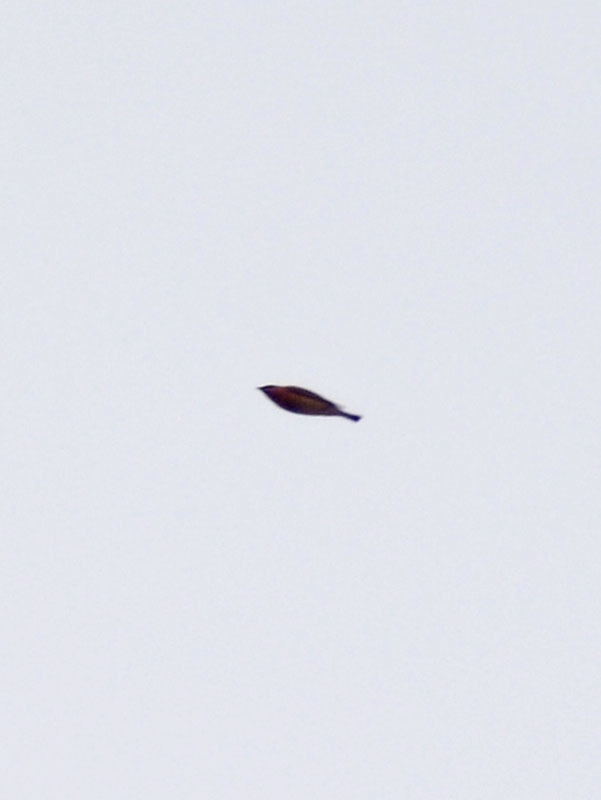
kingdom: Animalia
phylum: Chordata
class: Aves
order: Passeriformes
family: Bombycillidae
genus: Bombycilla
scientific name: Bombycilla cedrorum
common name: Cedar waxwing
